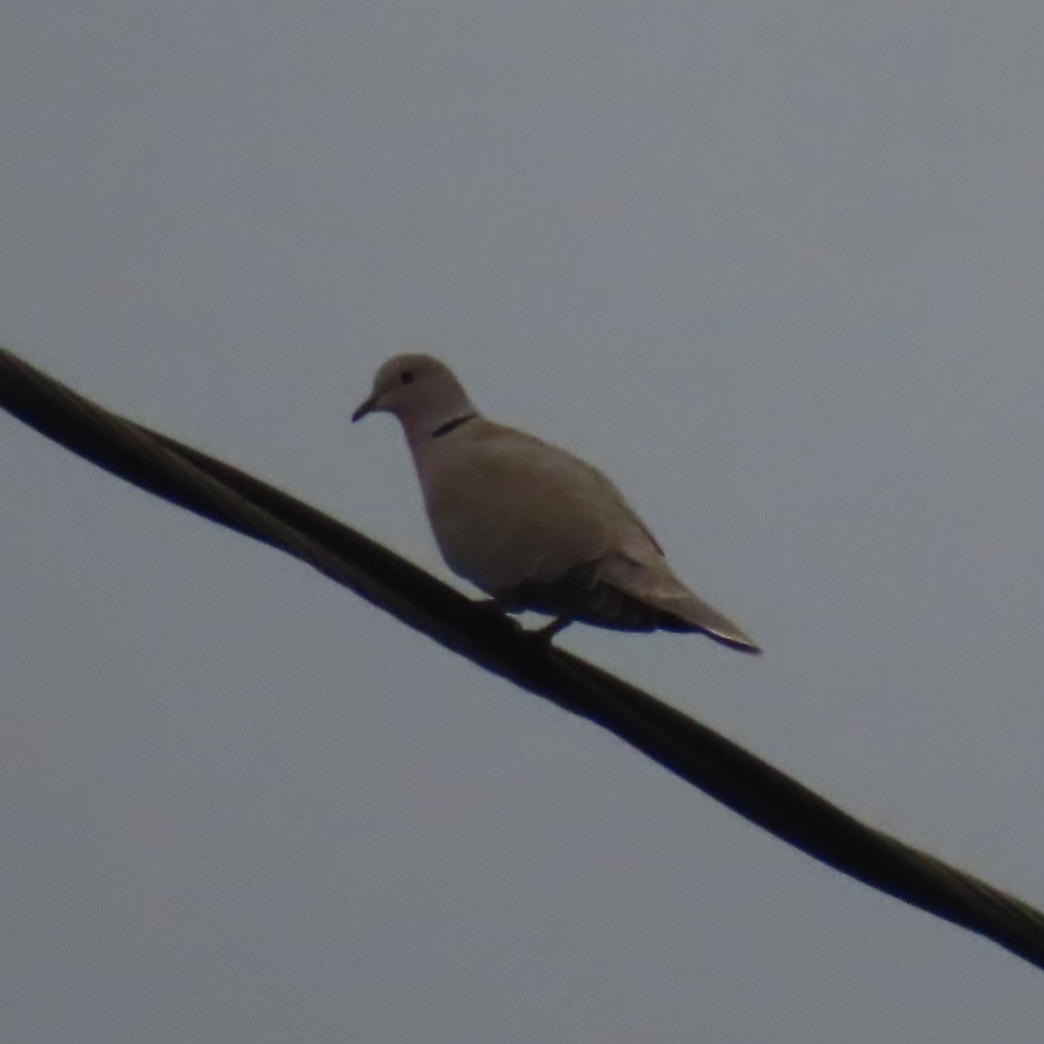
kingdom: Animalia
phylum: Chordata
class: Aves
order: Columbiformes
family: Columbidae
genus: Streptopelia
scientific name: Streptopelia decaocto
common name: Eurasian collared dove
